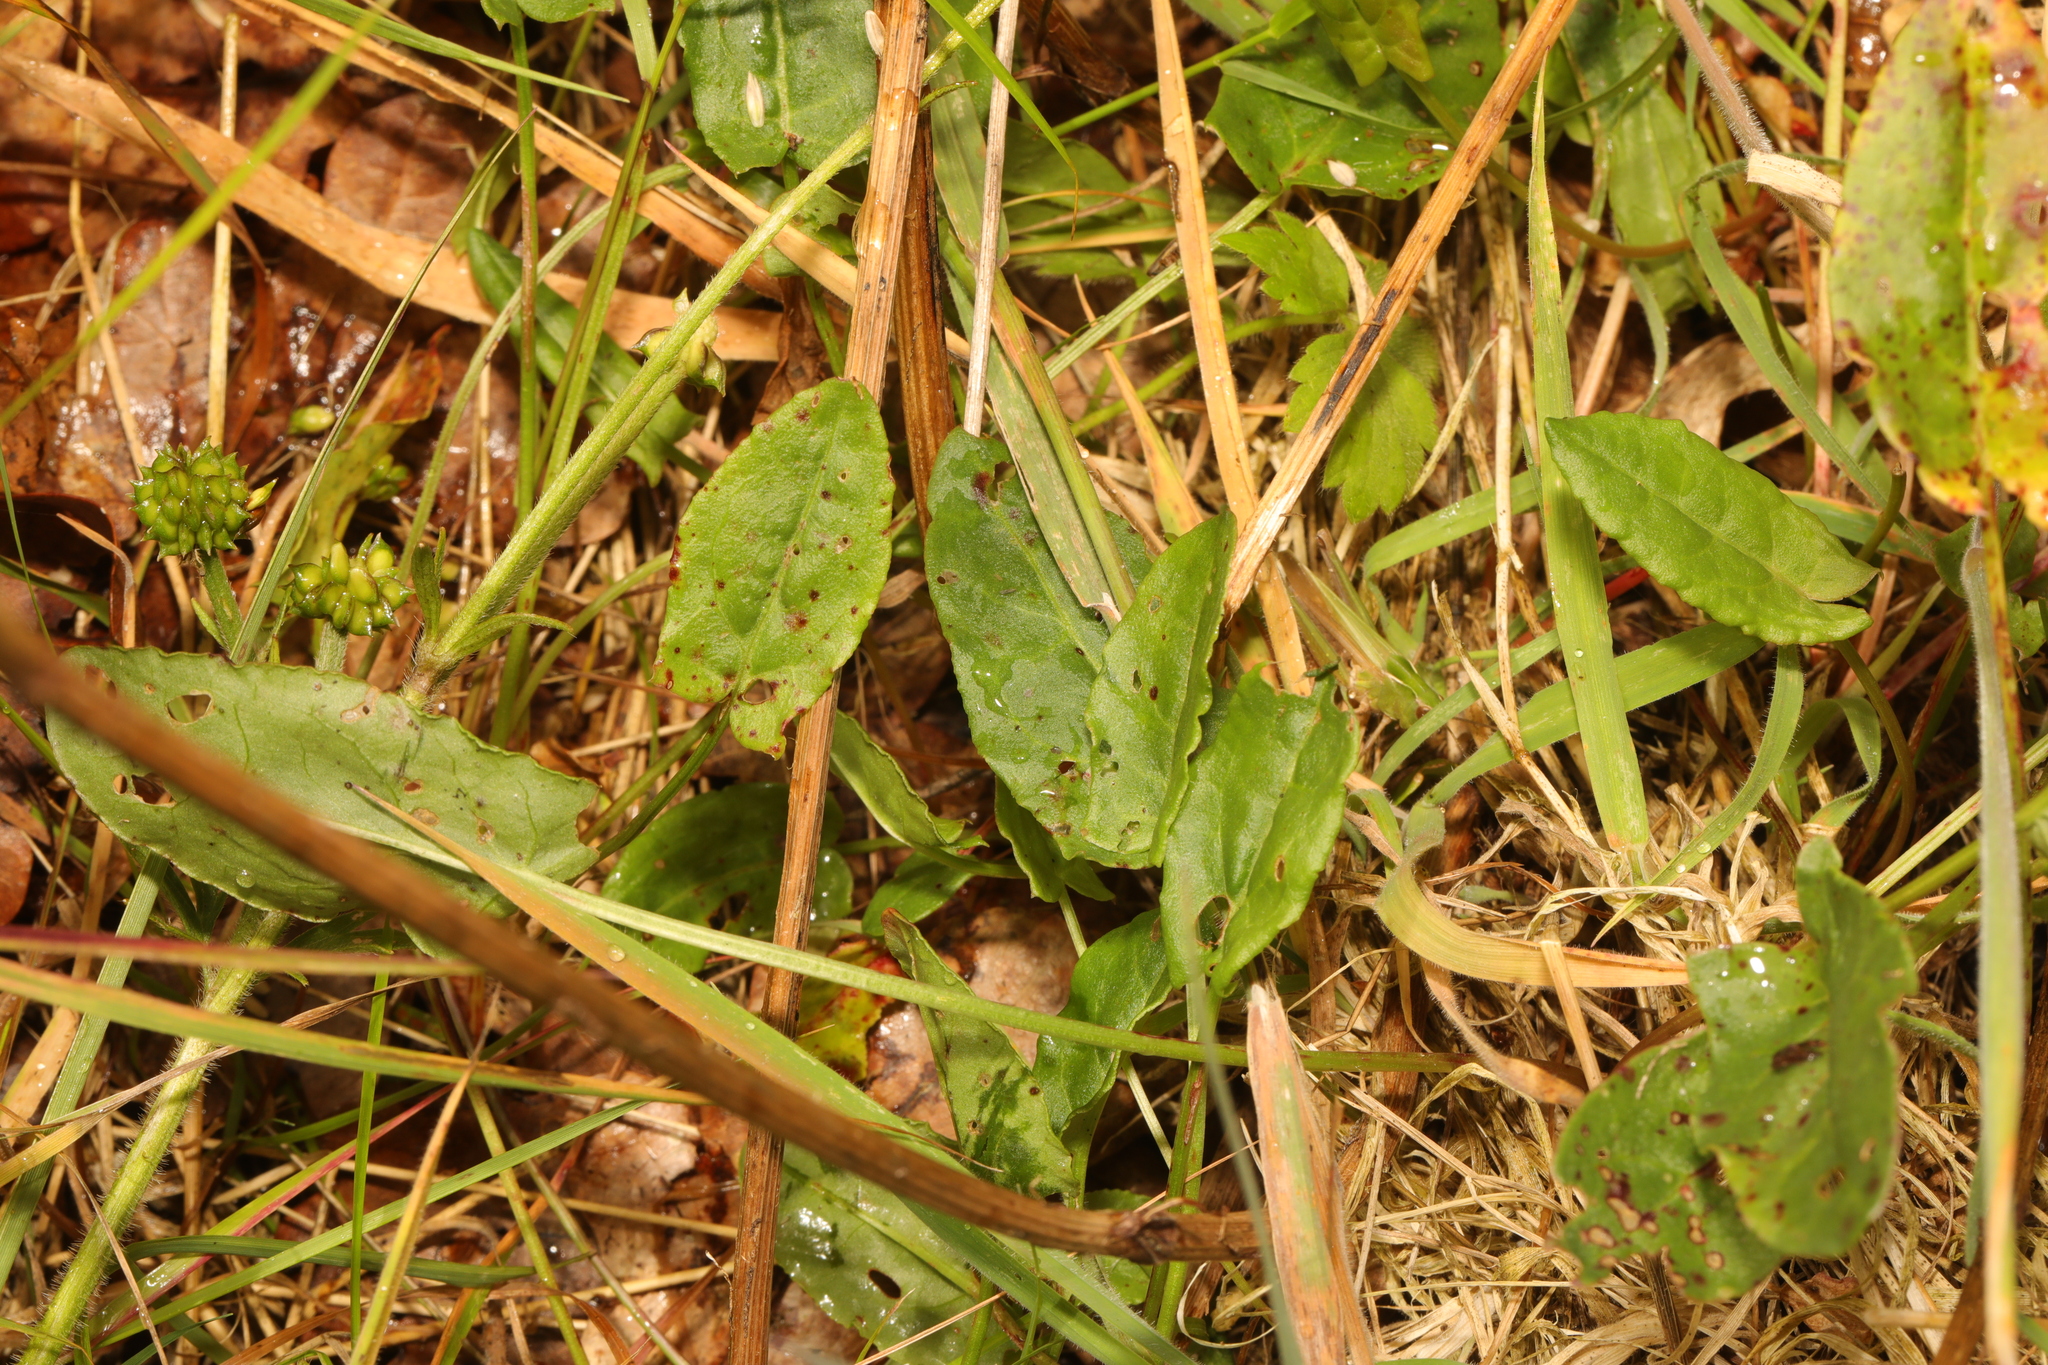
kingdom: Plantae
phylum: Tracheophyta
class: Magnoliopsida
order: Caryophyllales
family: Polygonaceae
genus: Rumex
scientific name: Rumex acetosa
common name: Garden sorrel
